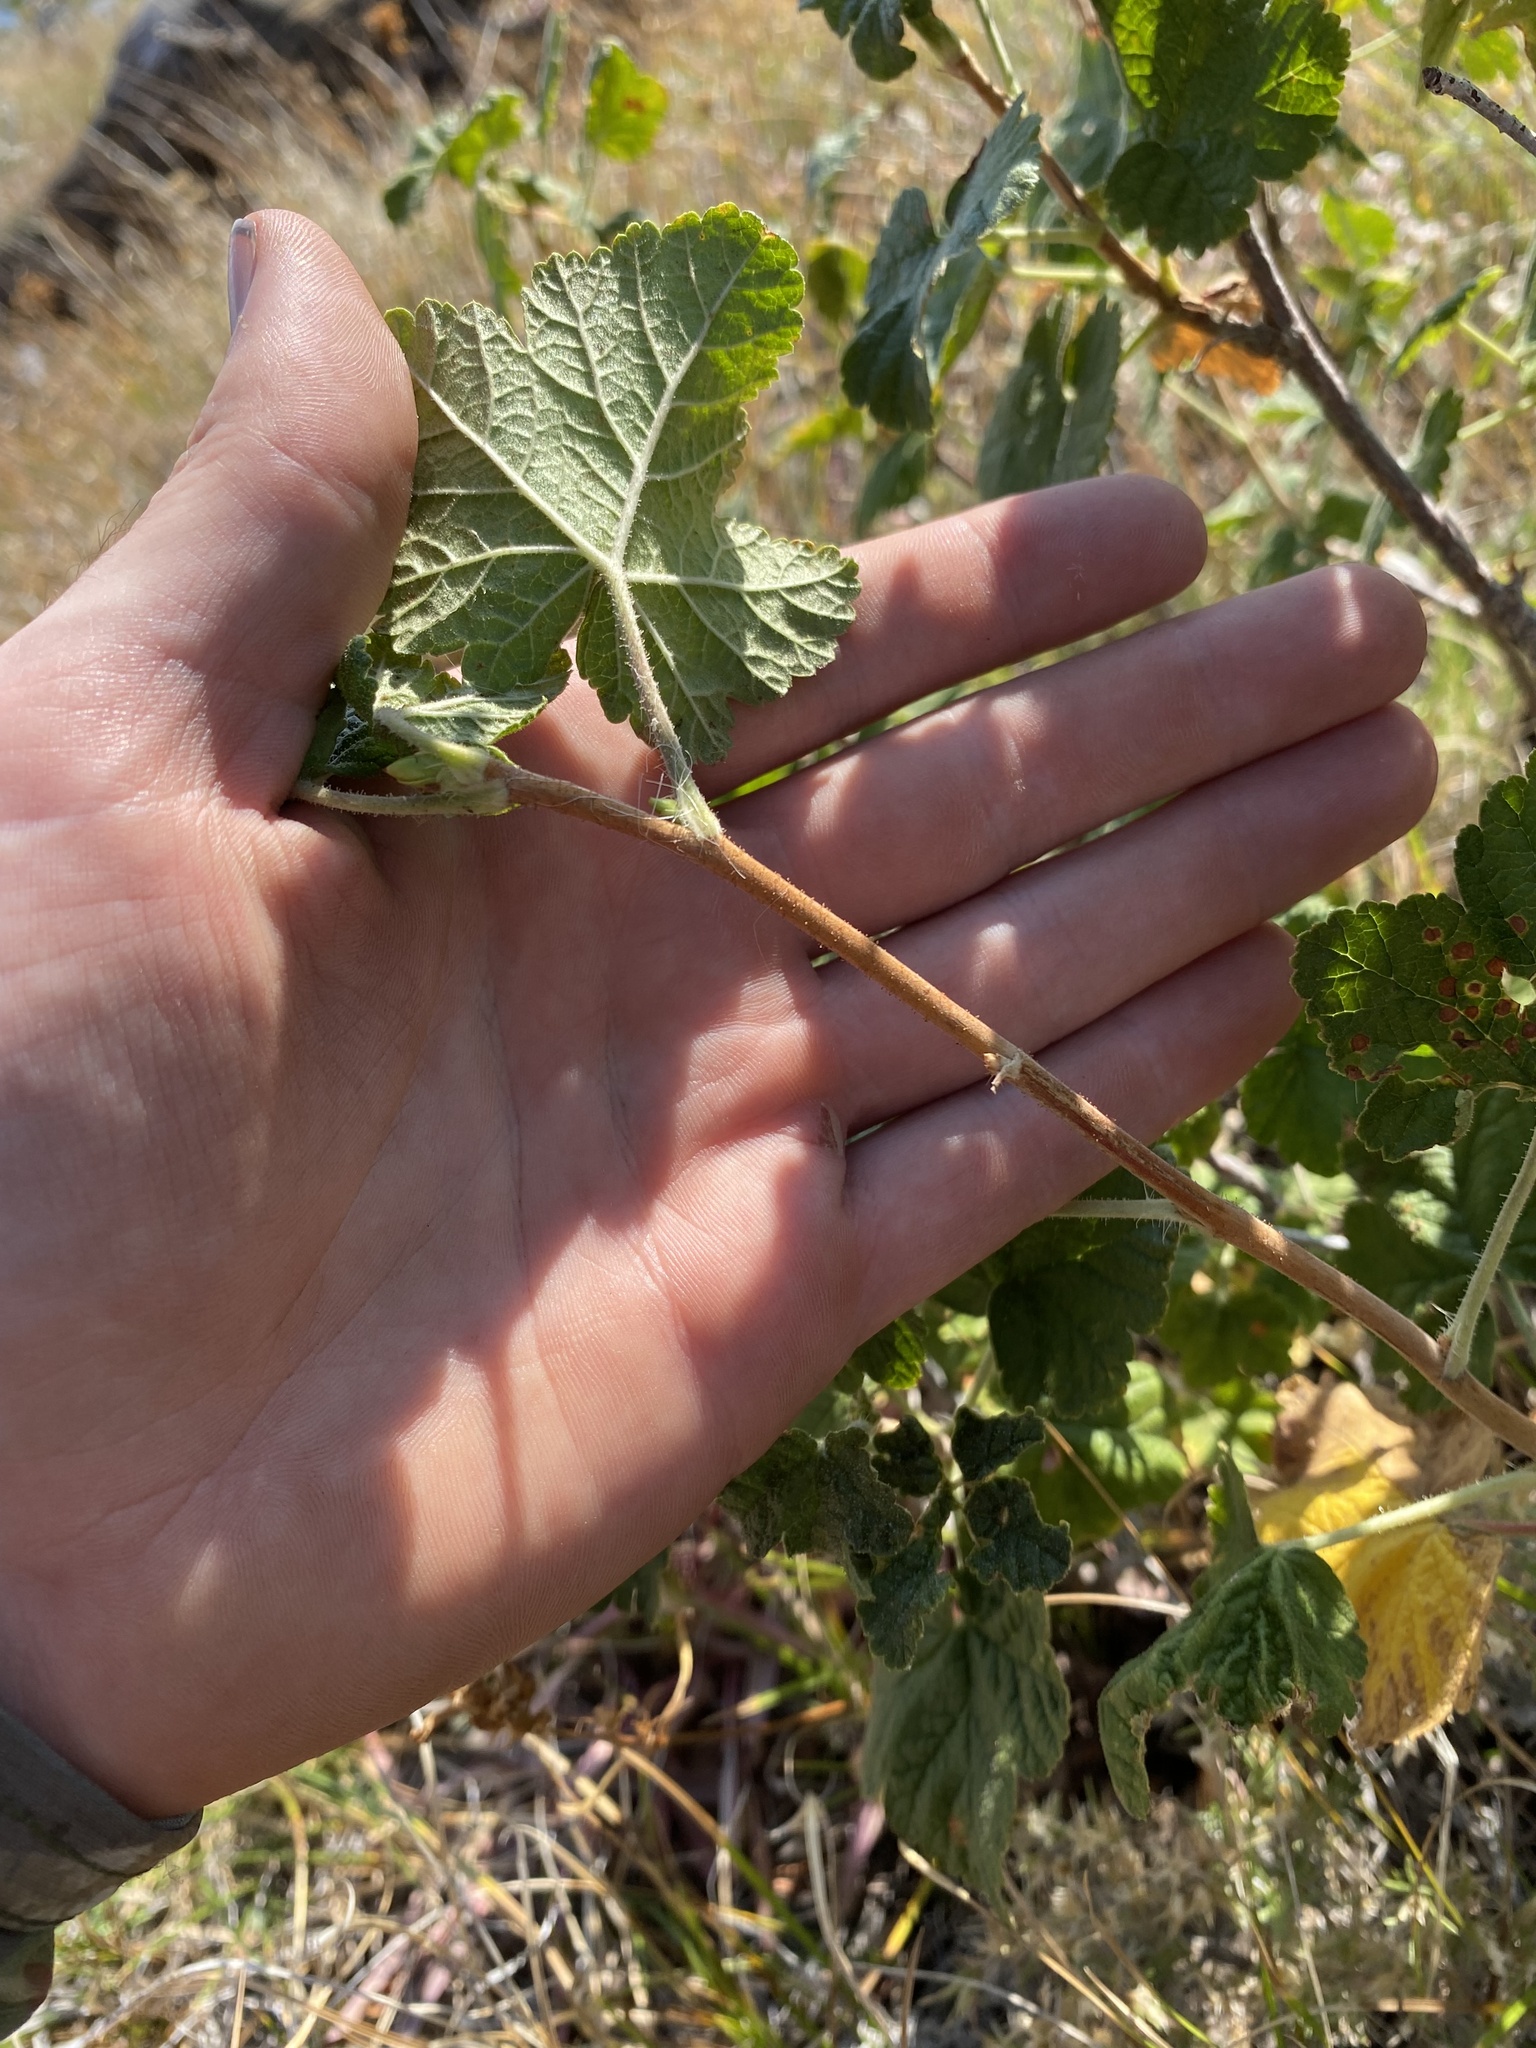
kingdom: Plantae
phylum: Tracheophyta
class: Magnoliopsida
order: Saxifragales
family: Grossulariaceae
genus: Ribes
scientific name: Ribes viscosissimum
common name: Sticky currant
